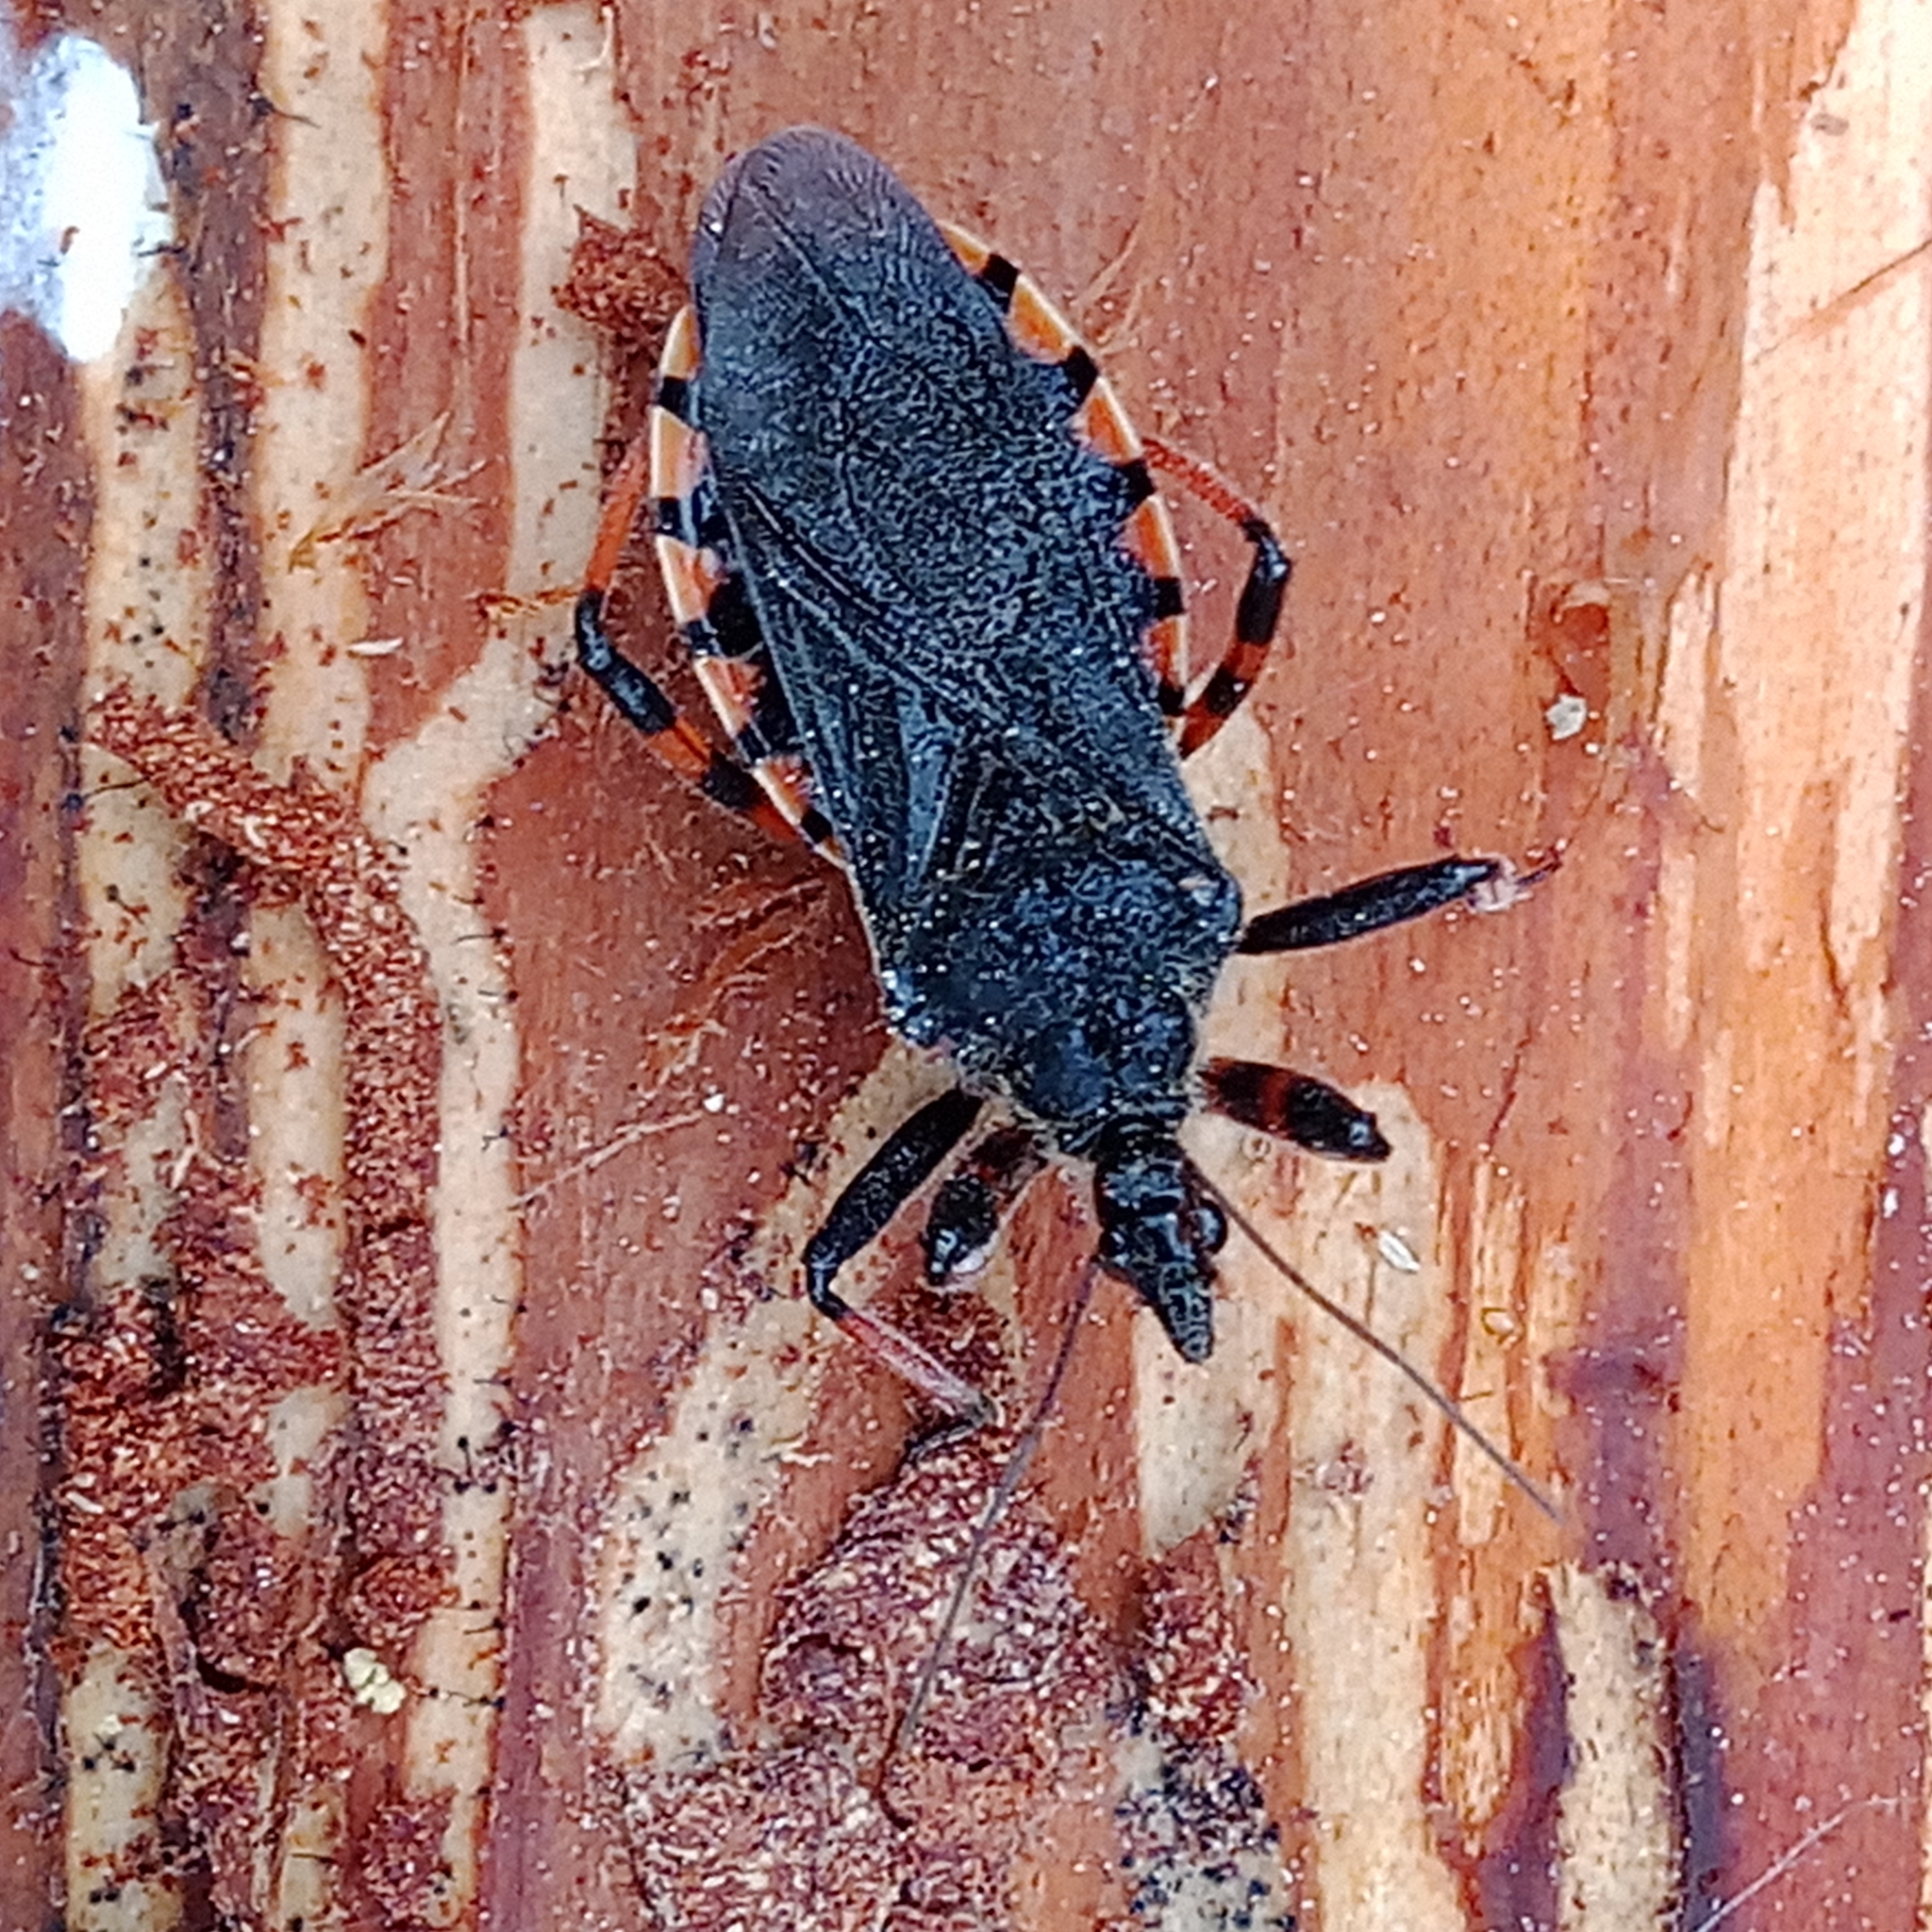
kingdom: Animalia
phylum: Arthropoda
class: Insecta
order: Hemiptera
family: Reduviidae
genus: Rhynocoris
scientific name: Rhynocoris annulatus
